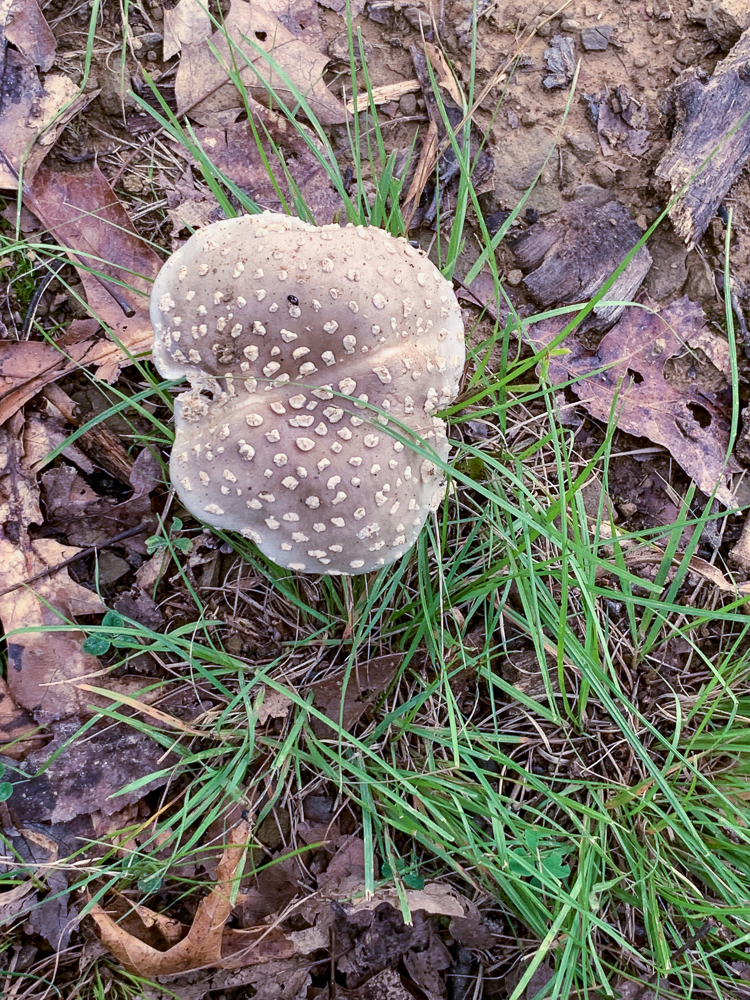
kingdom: Fungi
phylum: Basidiomycota
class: Agaricomycetes
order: Agaricales
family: Amanitaceae
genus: Amanita
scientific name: Amanita canescens
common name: Golden threads lepidella
